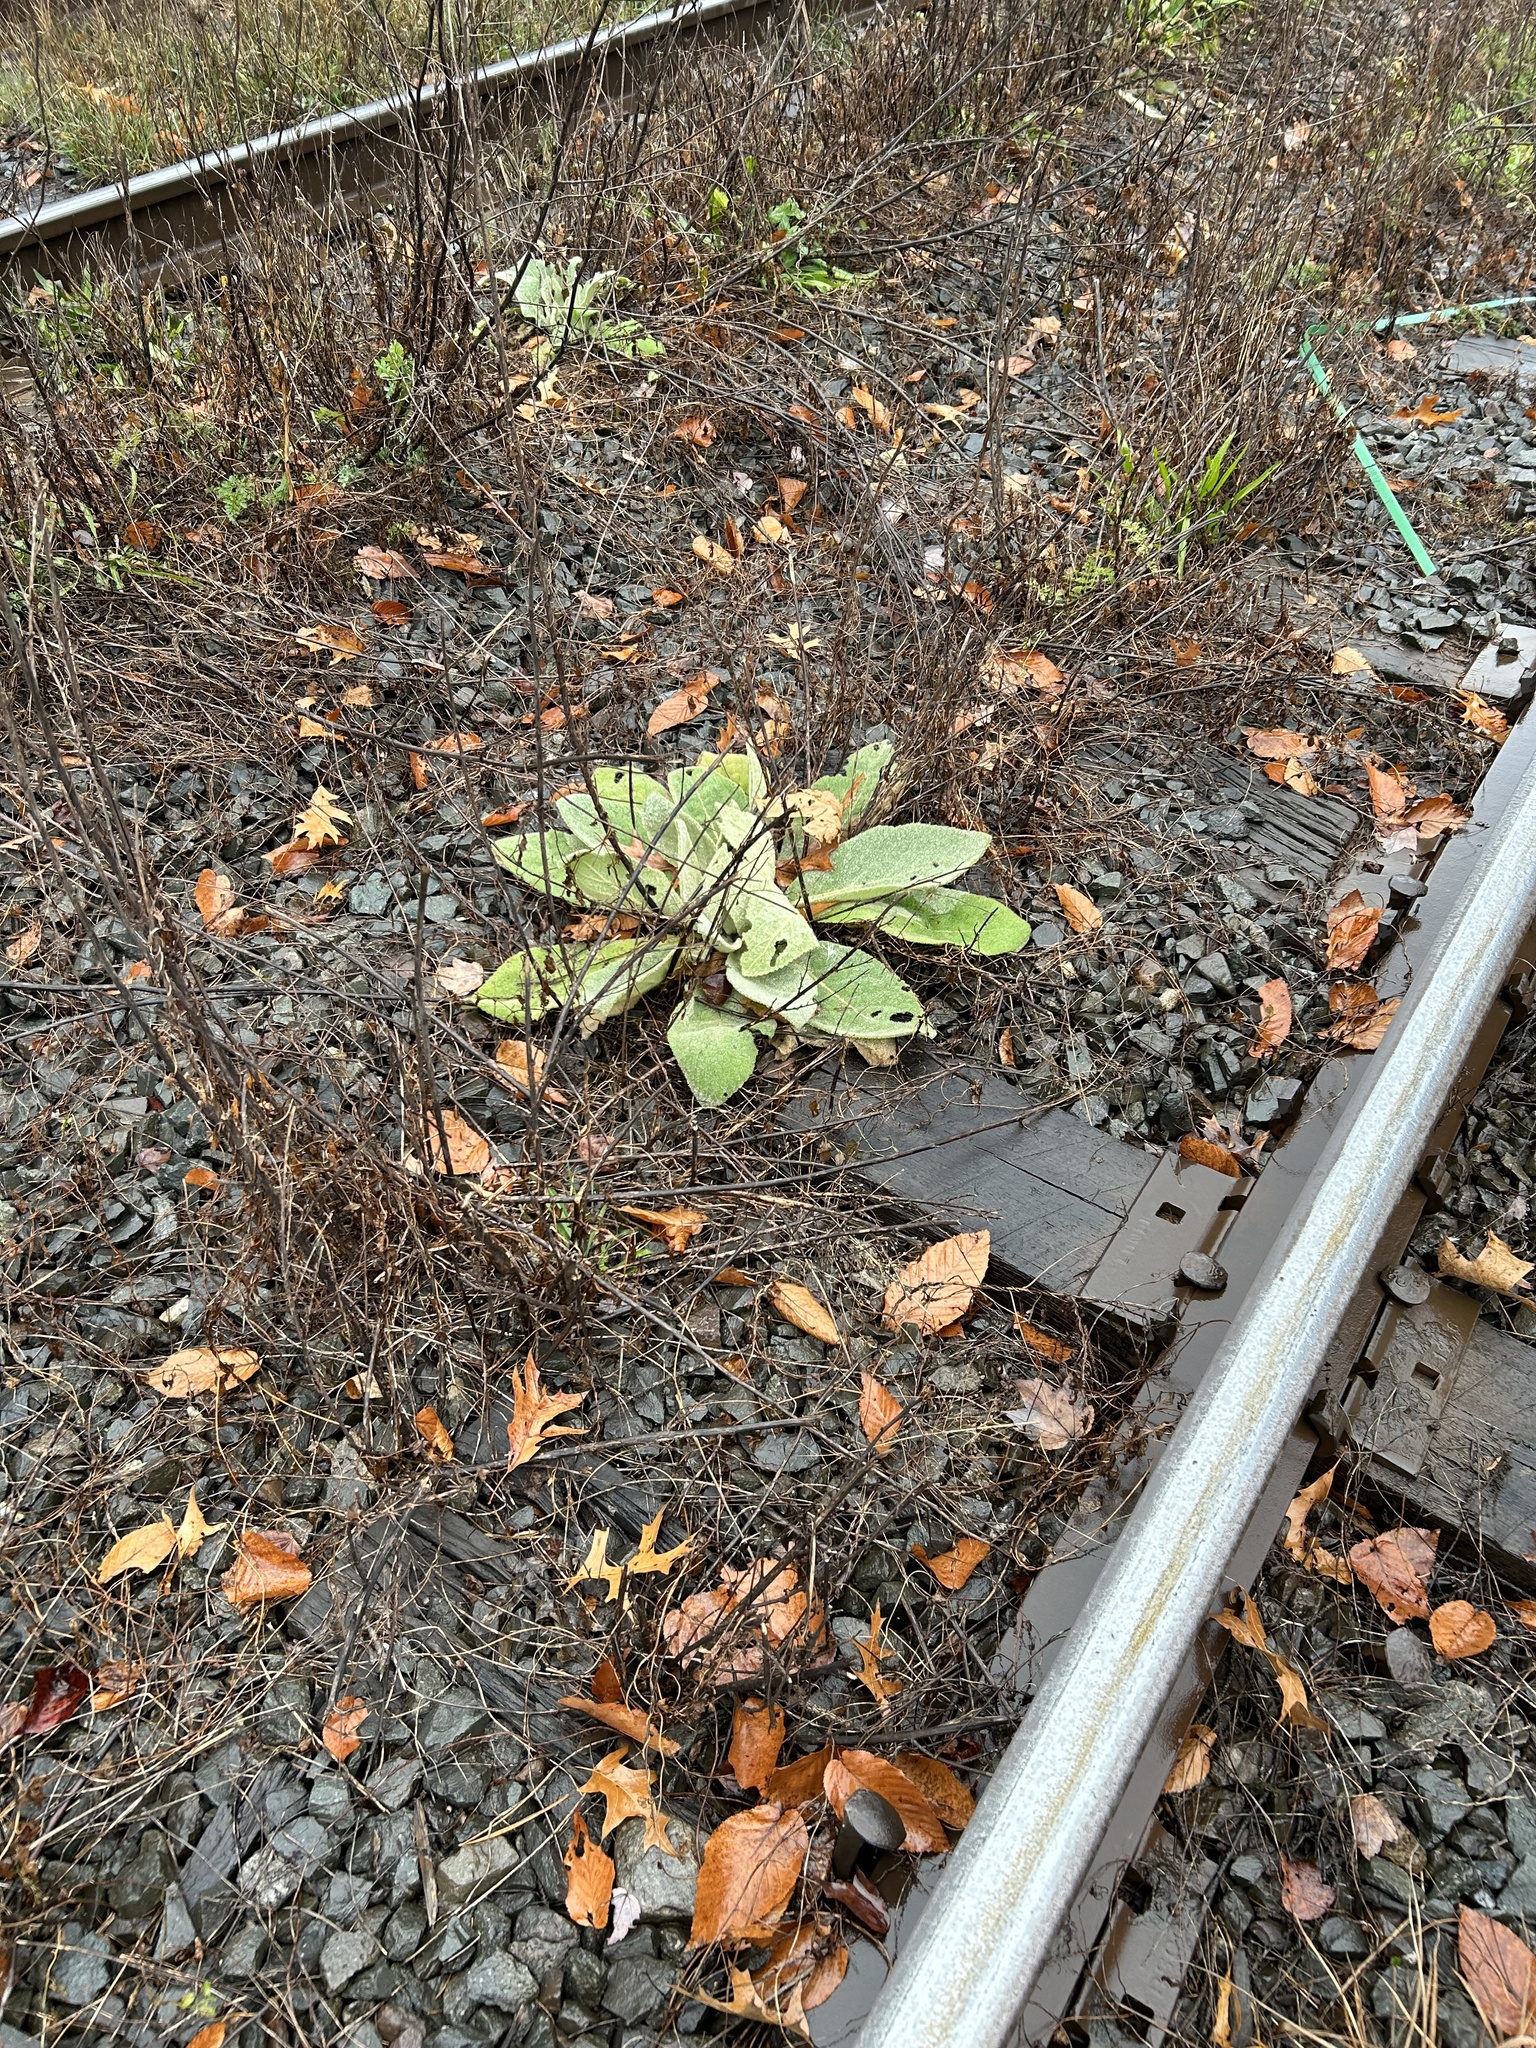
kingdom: Plantae
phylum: Tracheophyta
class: Magnoliopsida
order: Lamiales
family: Scrophulariaceae
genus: Verbascum
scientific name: Verbascum thapsus
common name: Common mullein
